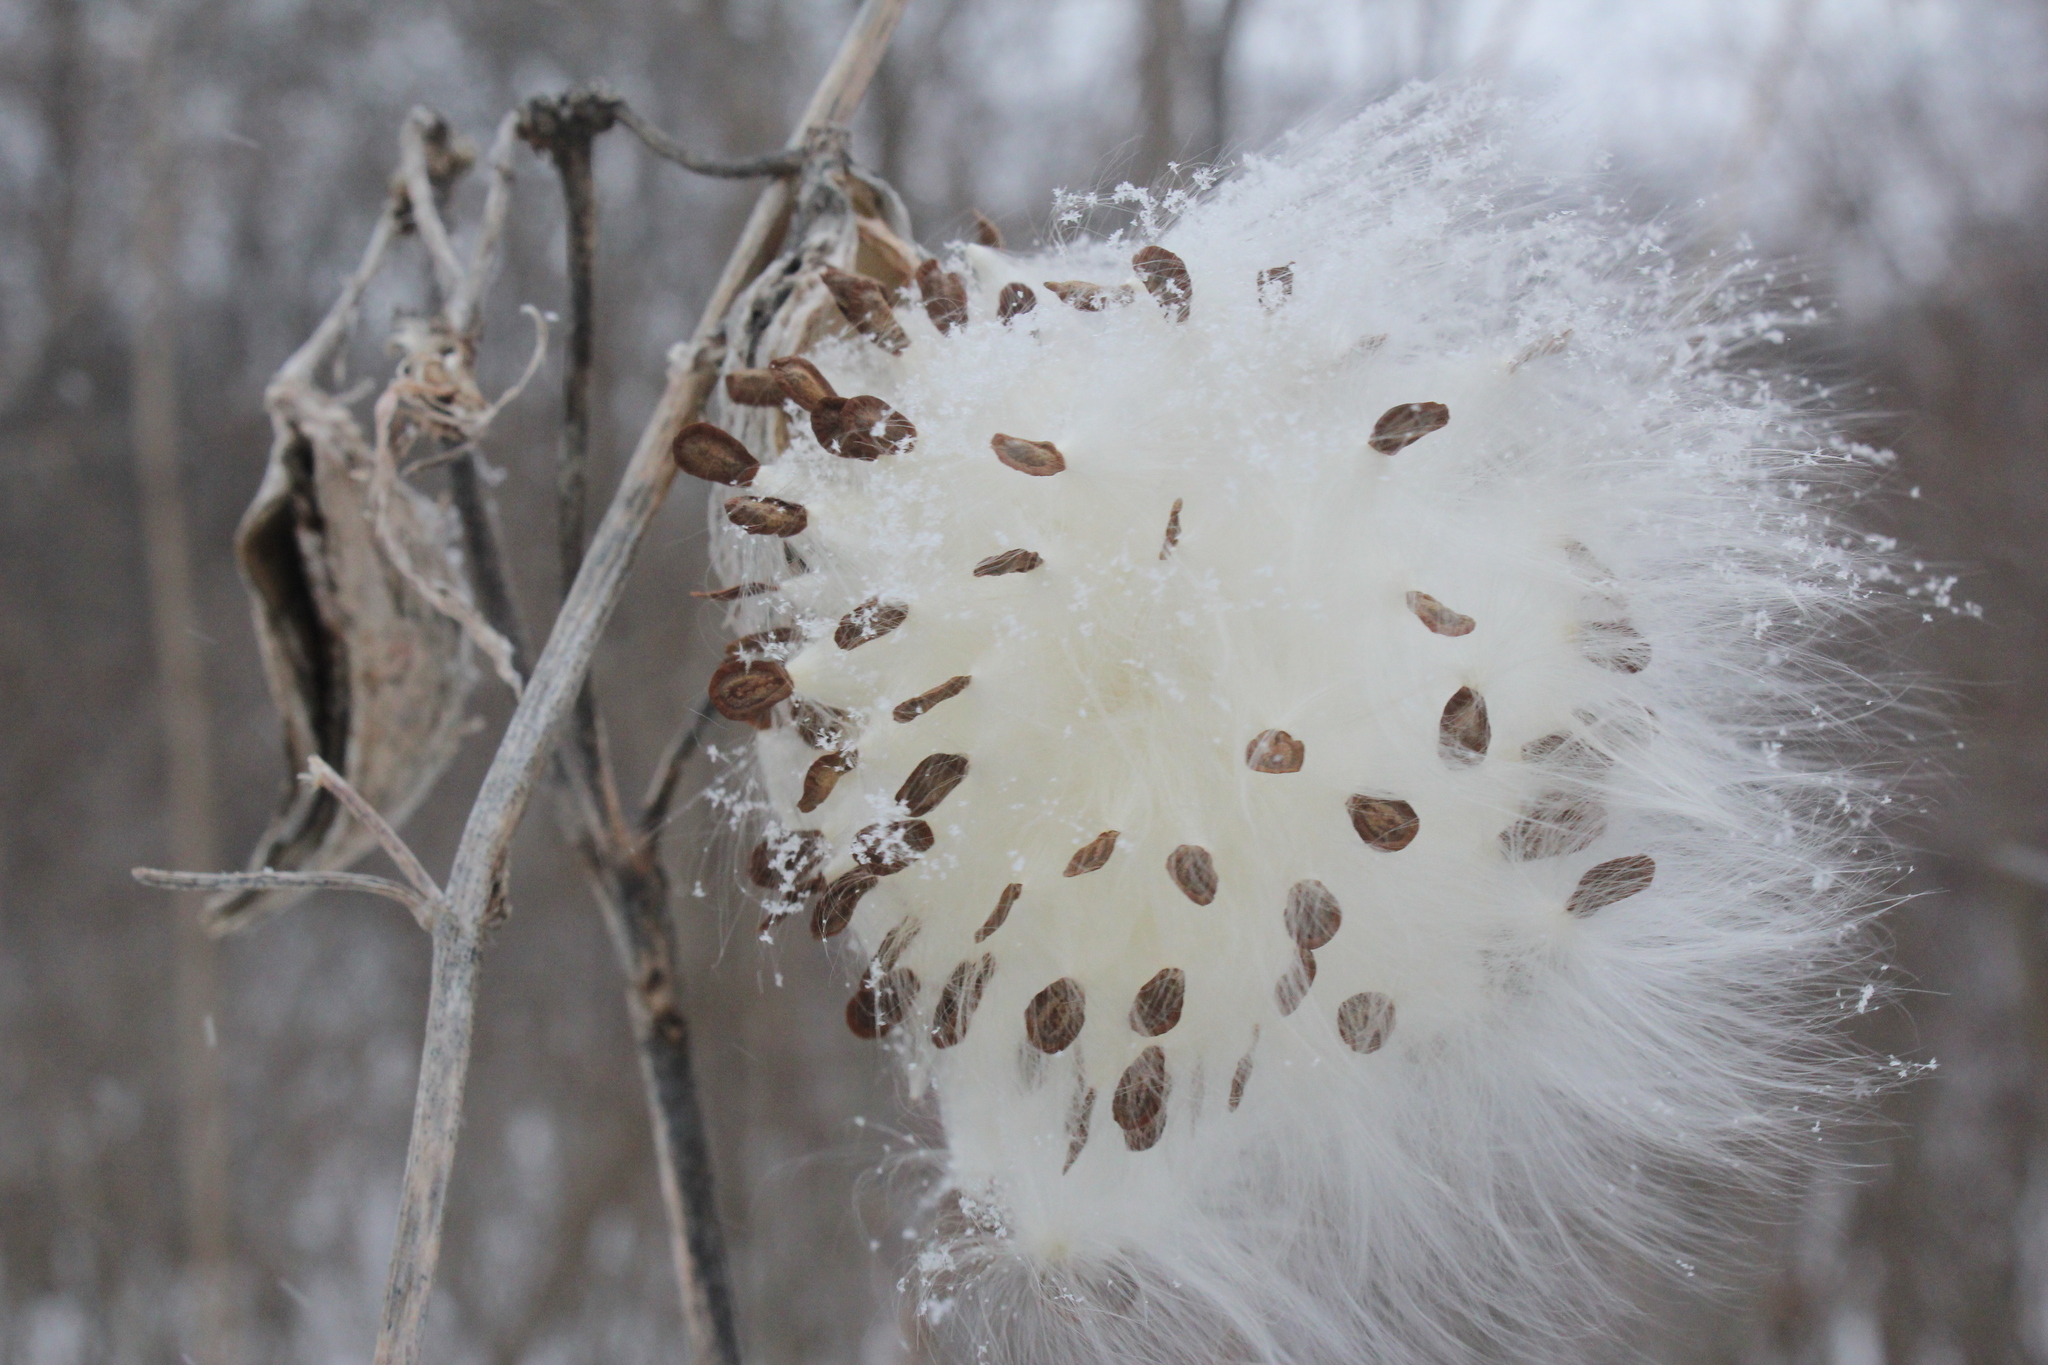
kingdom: Plantae
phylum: Tracheophyta
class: Magnoliopsida
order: Gentianales
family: Apocynaceae
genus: Asclepias
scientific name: Asclepias syriaca
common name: Common milkweed
